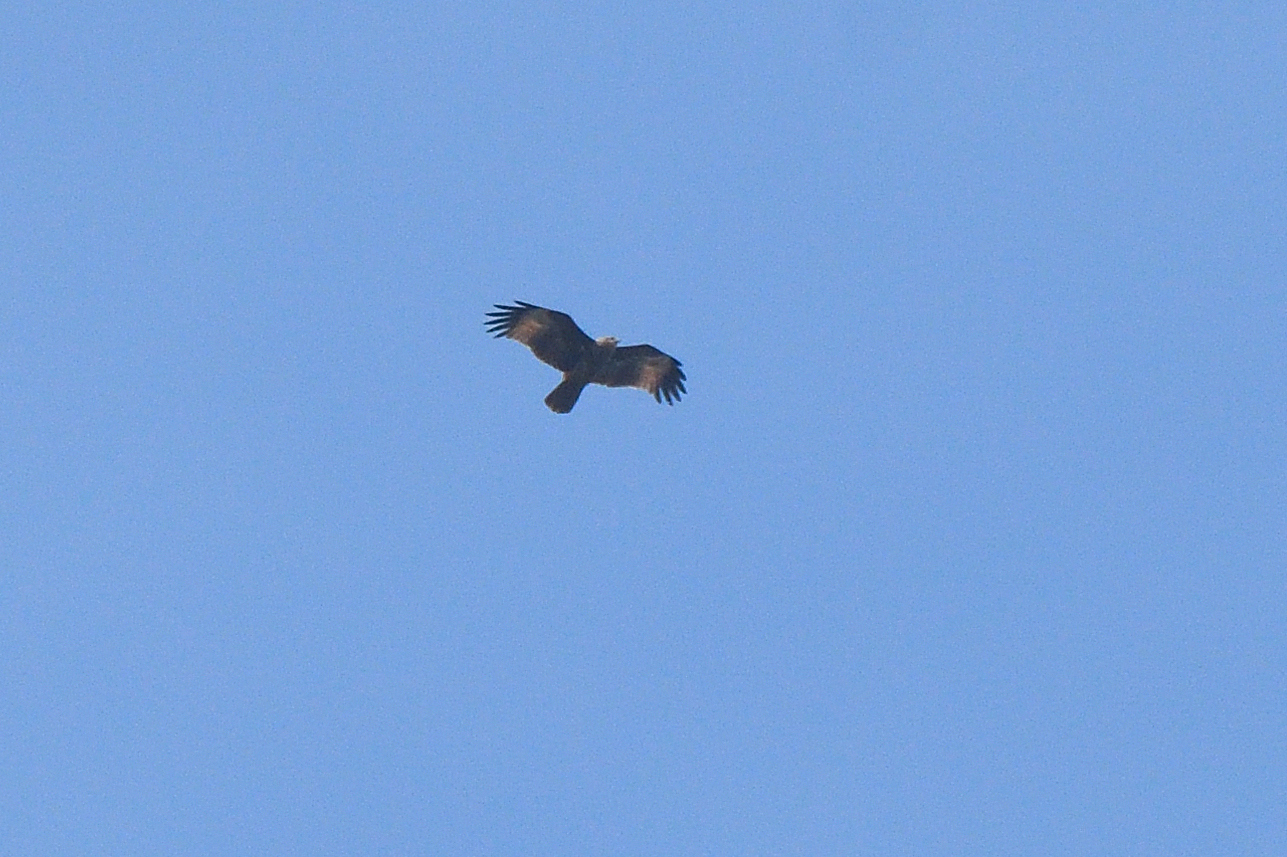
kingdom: Animalia
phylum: Chordata
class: Aves
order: Accipitriformes
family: Accipitridae
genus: Haliastur
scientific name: Haliastur indus
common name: Brahminy kite
